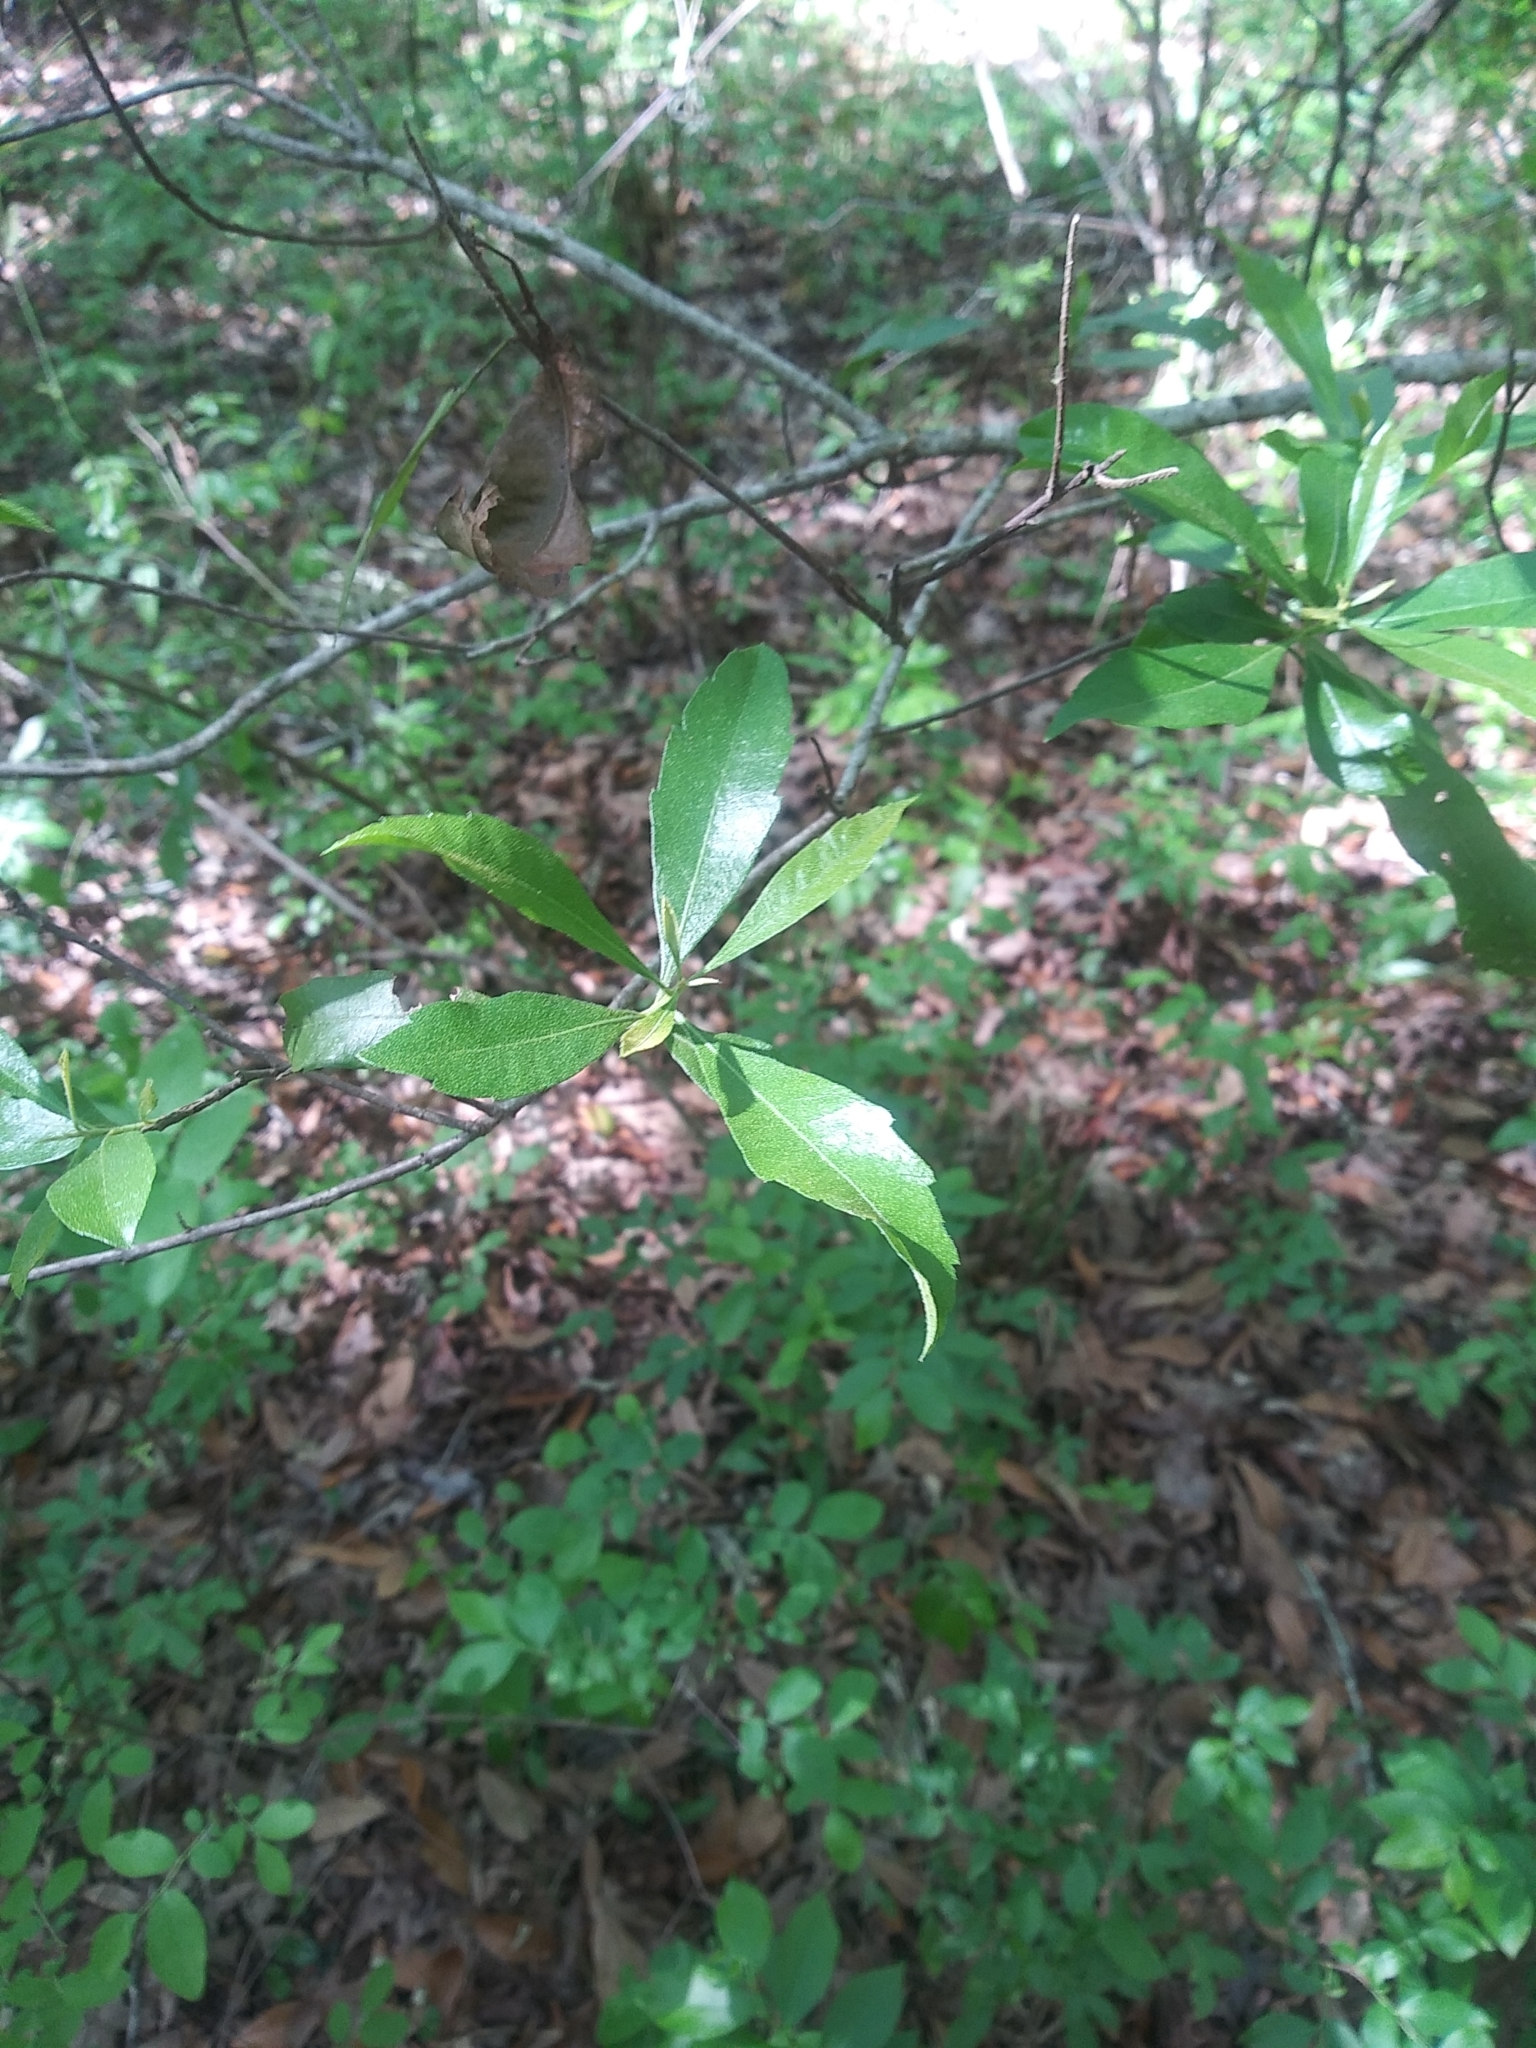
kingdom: Plantae
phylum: Tracheophyta
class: Magnoliopsida
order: Fagales
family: Myricaceae
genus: Morella
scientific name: Morella cerifera
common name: Wax myrtle
